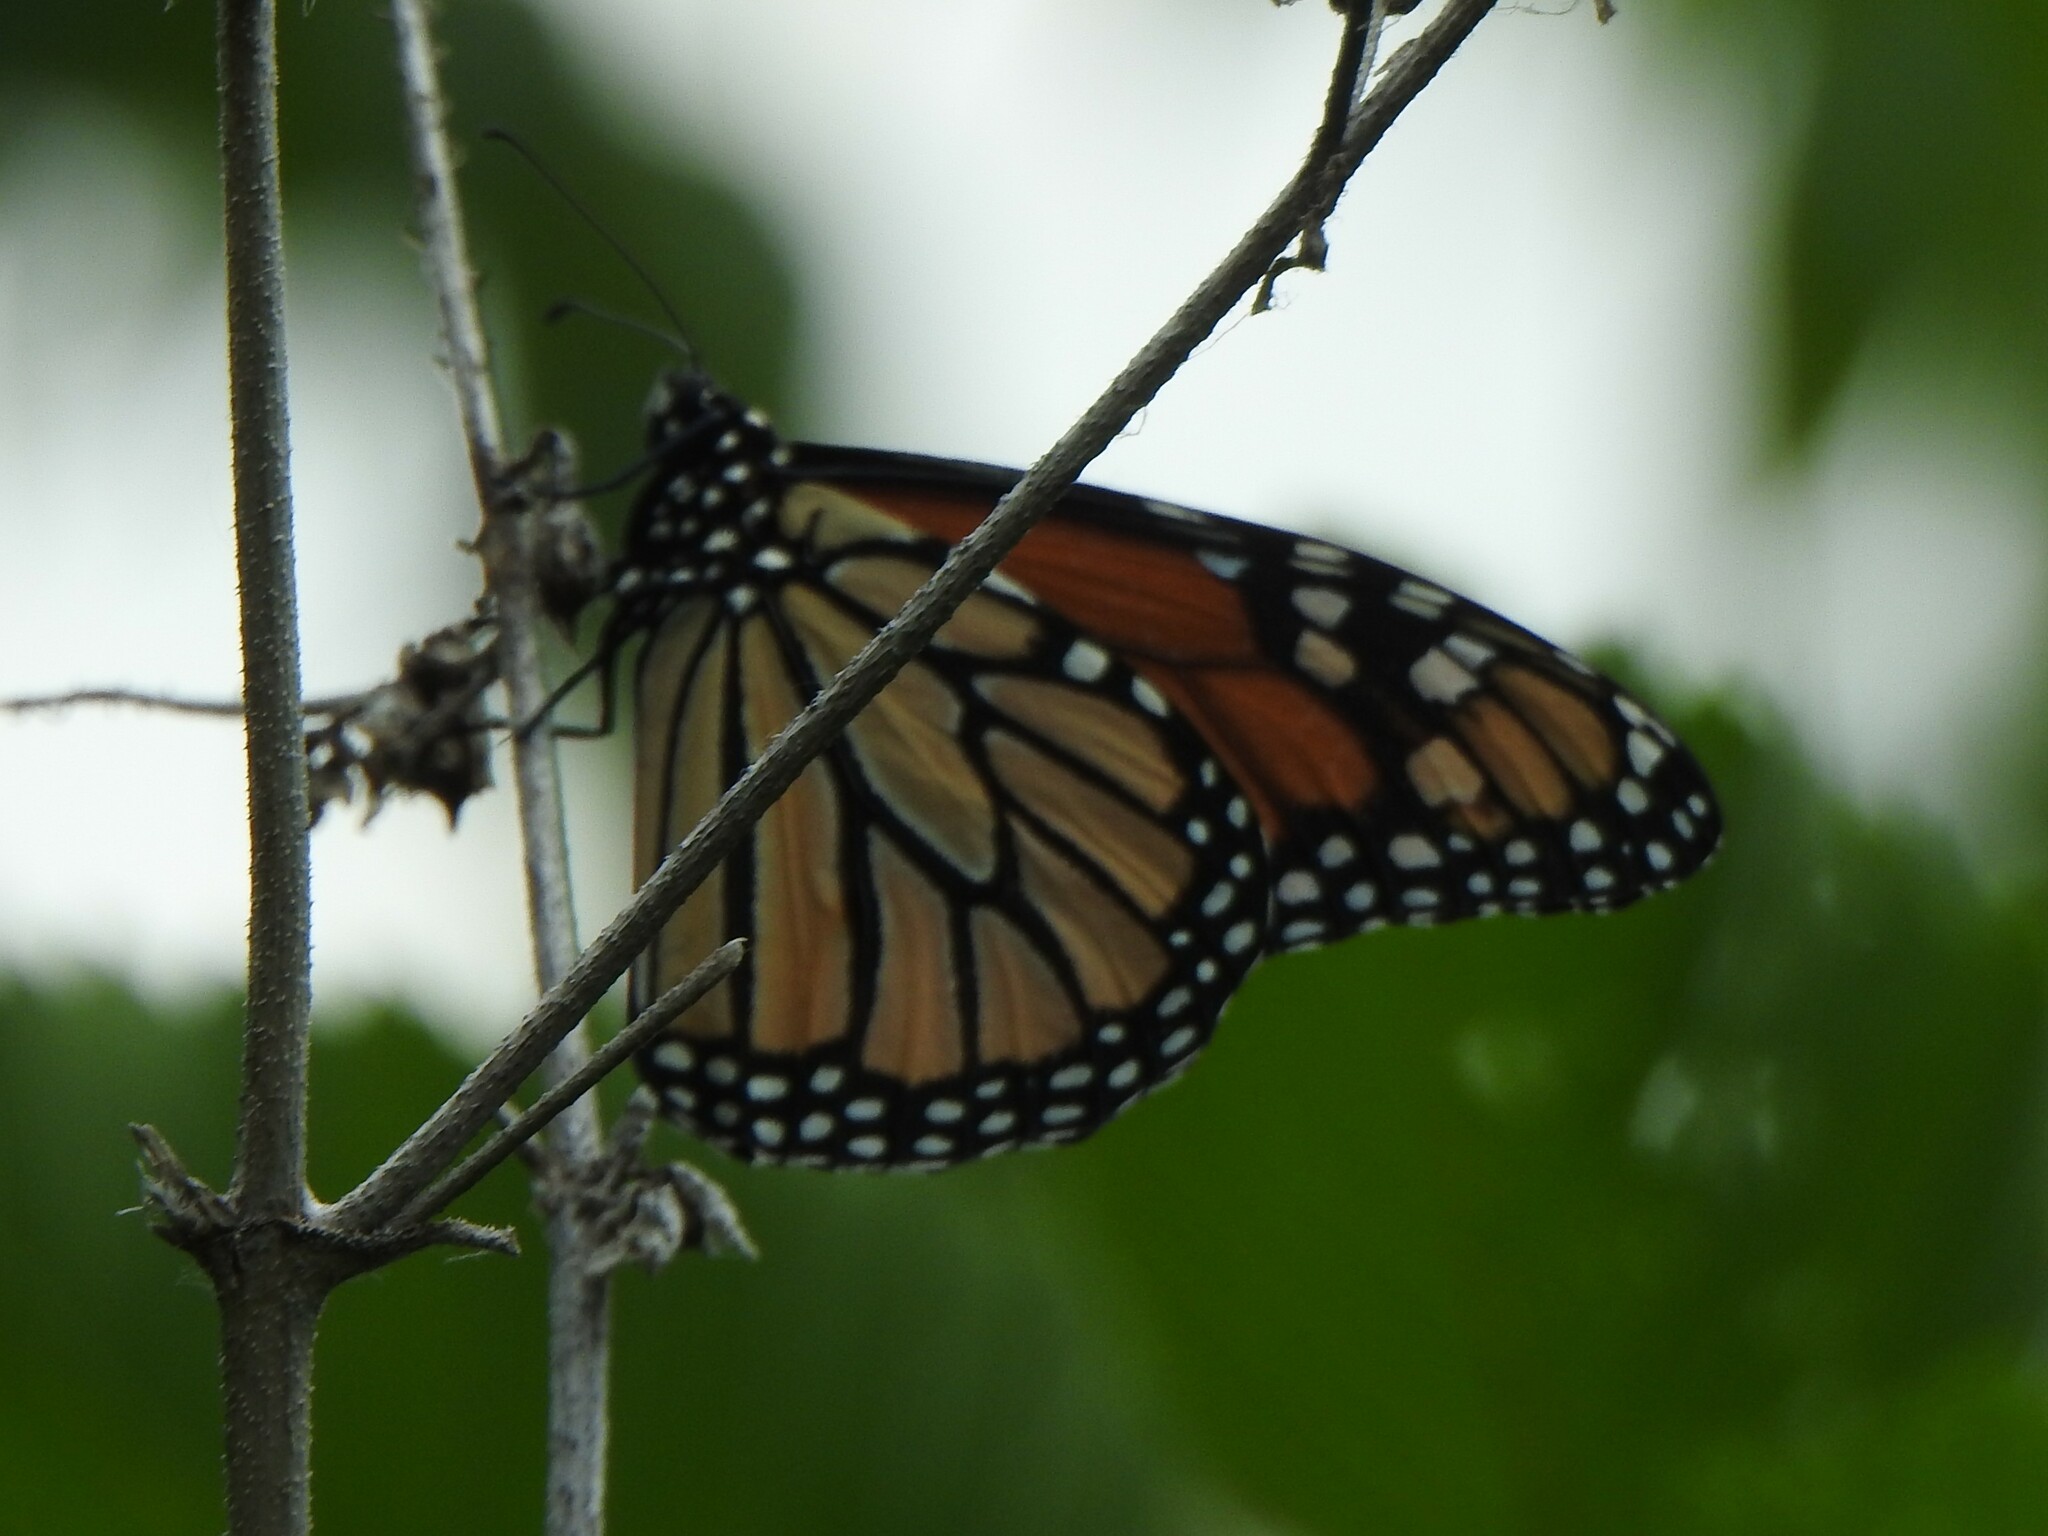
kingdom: Animalia
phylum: Arthropoda
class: Insecta
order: Lepidoptera
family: Nymphalidae
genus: Danaus
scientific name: Danaus plexippus
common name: Monarch
